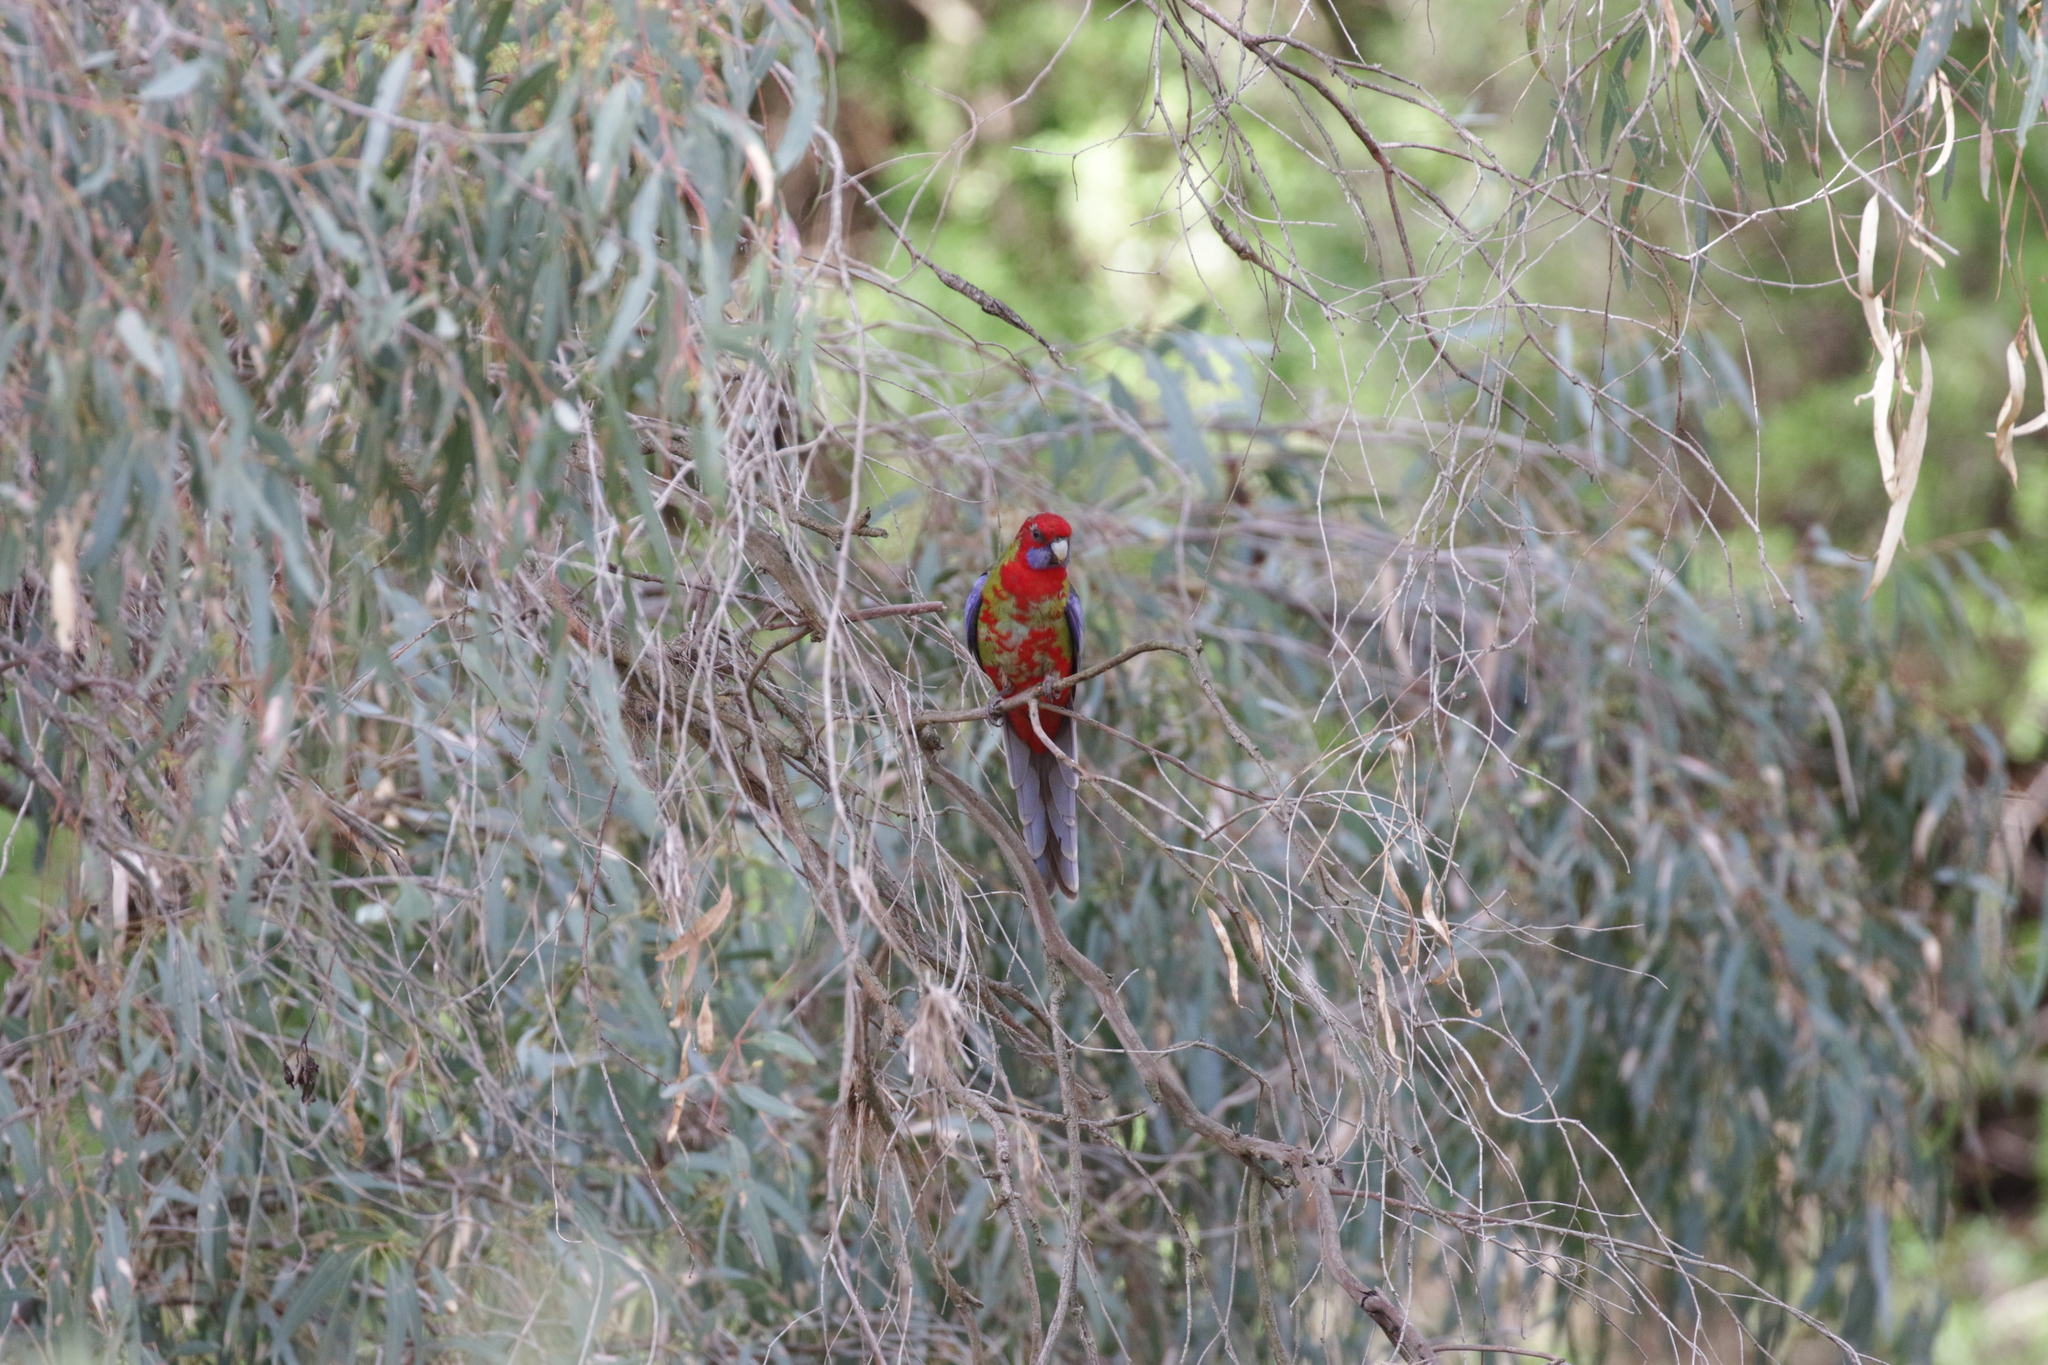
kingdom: Animalia
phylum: Chordata
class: Aves
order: Psittaciformes
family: Psittacidae
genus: Platycercus
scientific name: Platycercus elegans
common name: Crimson rosella
